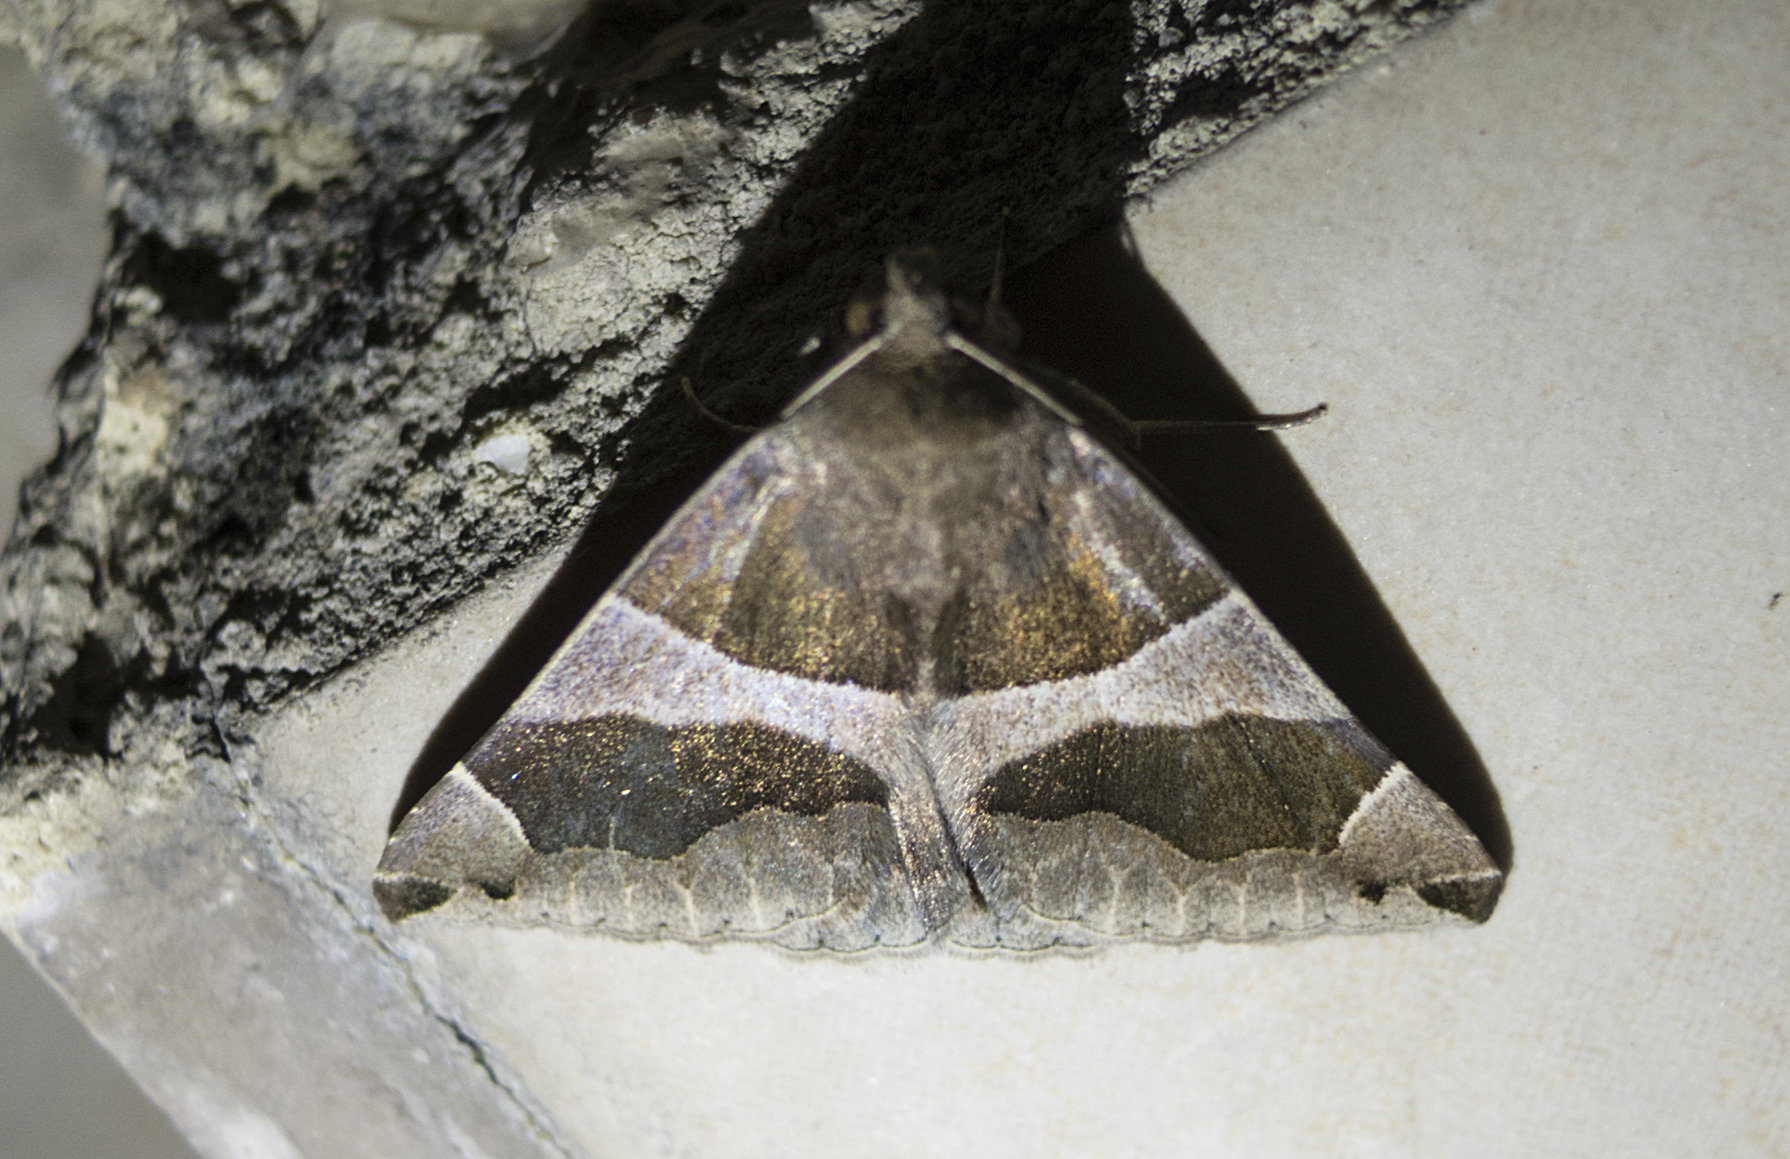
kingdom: Animalia
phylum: Arthropoda
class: Insecta
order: Lepidoptera
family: Erebidae
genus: Dysgonia
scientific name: Dysgonia algira
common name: Passenger
